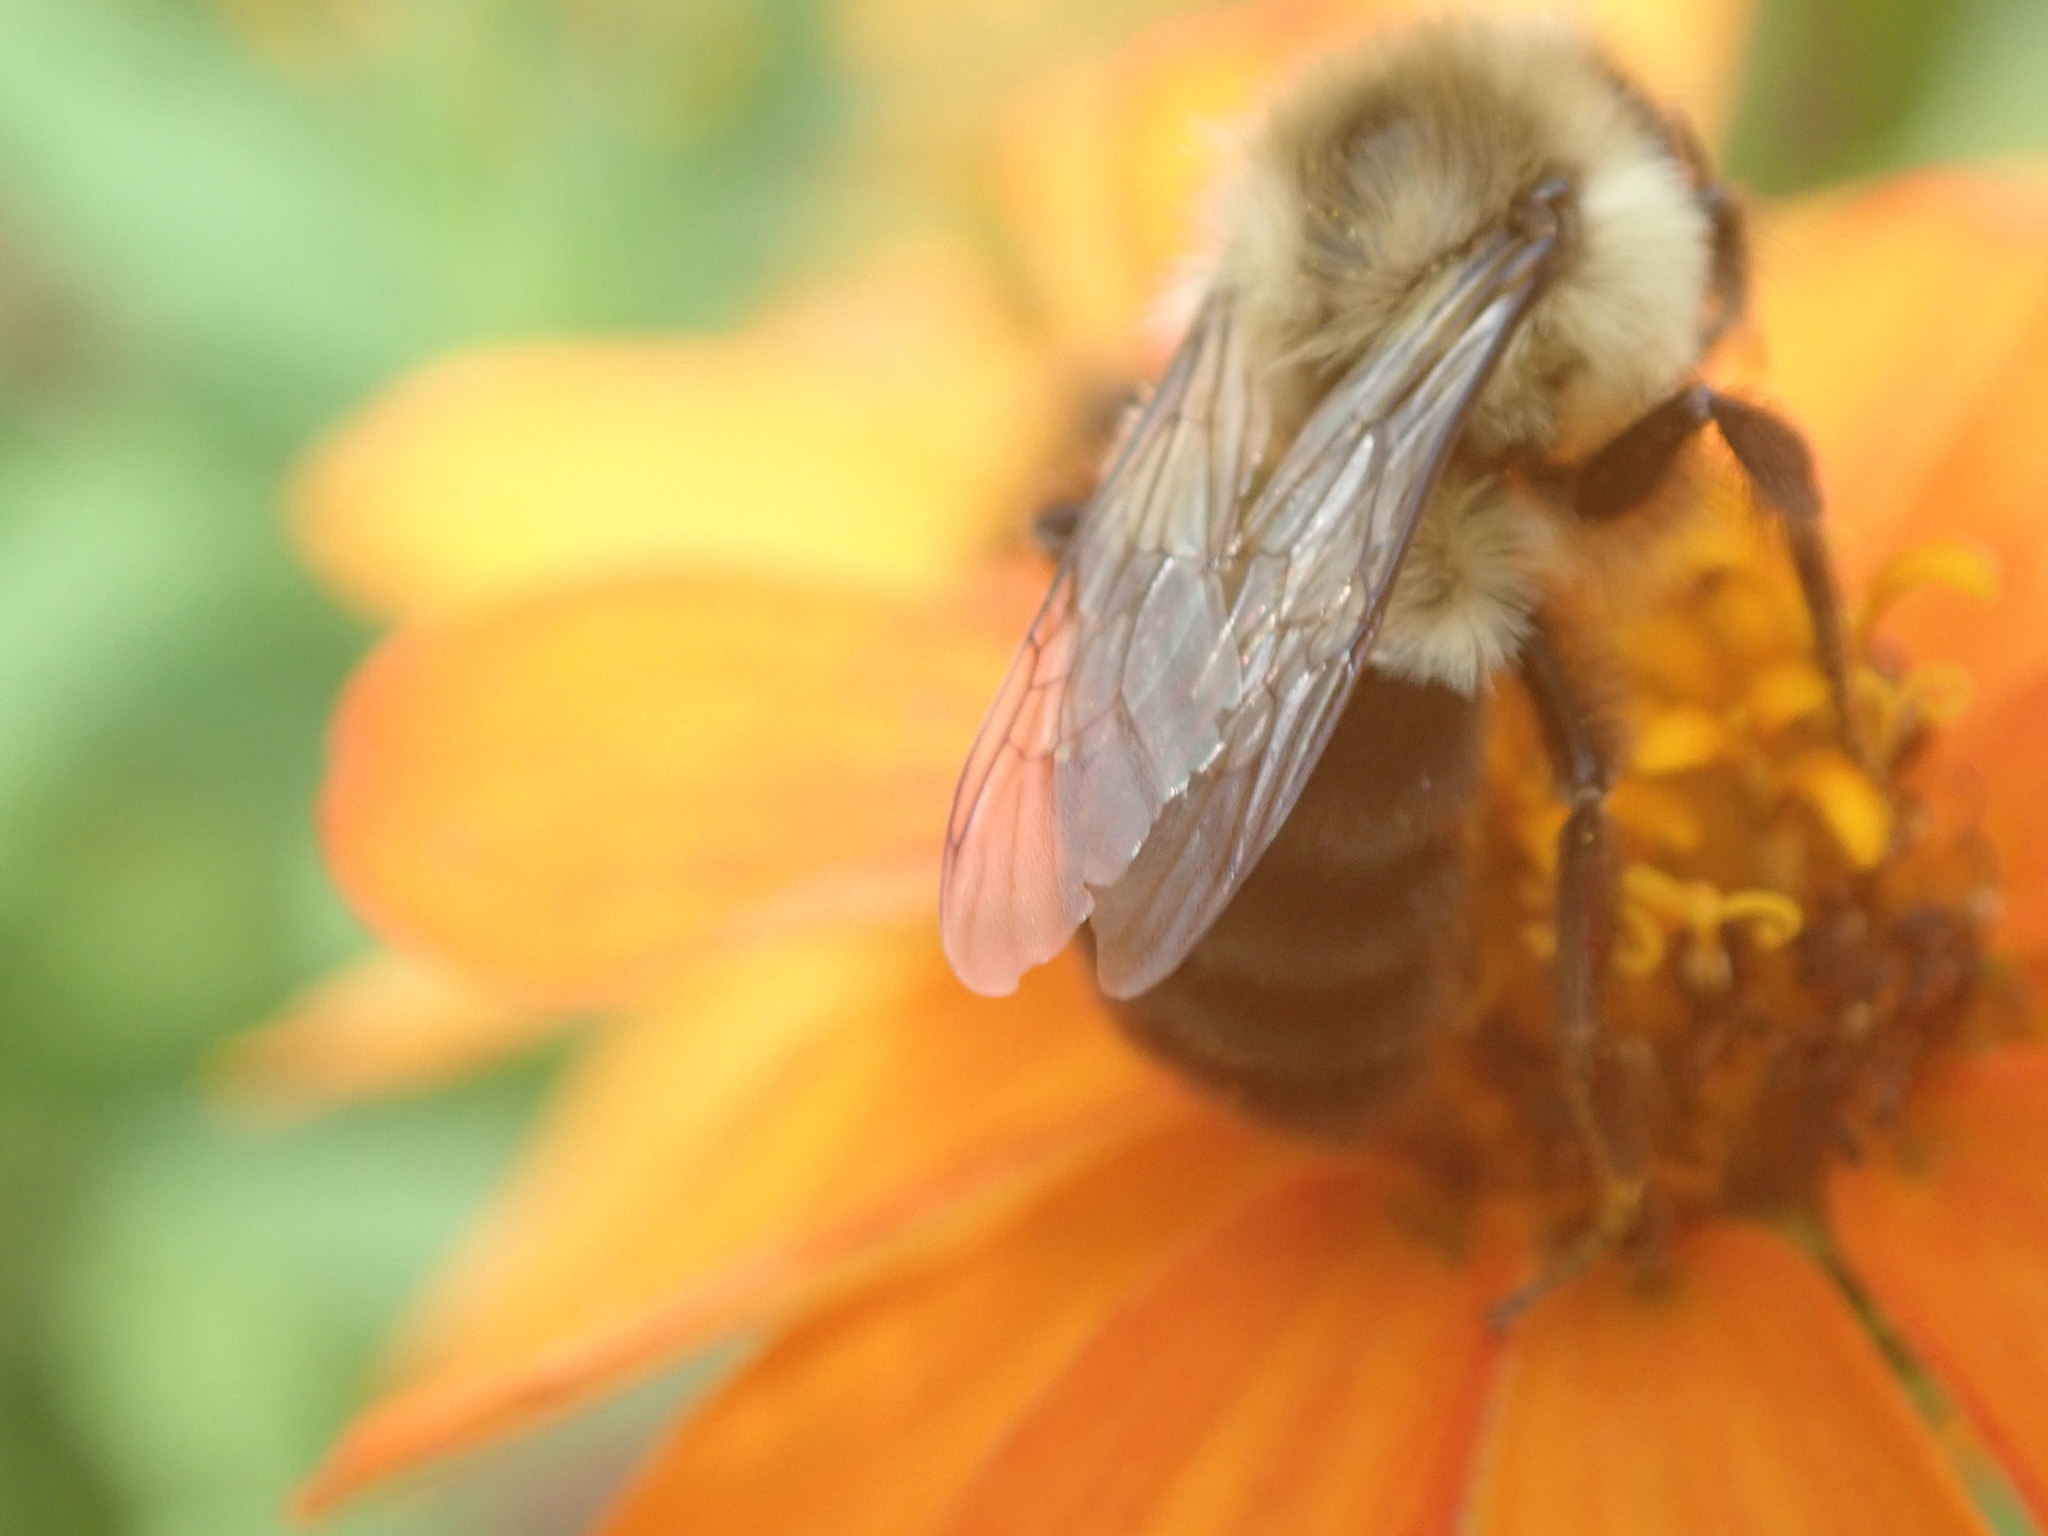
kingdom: Animalia
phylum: Arthropoda
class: Insecta
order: Hymenoptera
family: Apidae
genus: Bombus
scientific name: Bombus impatiens
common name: Common eastern bumble bee
